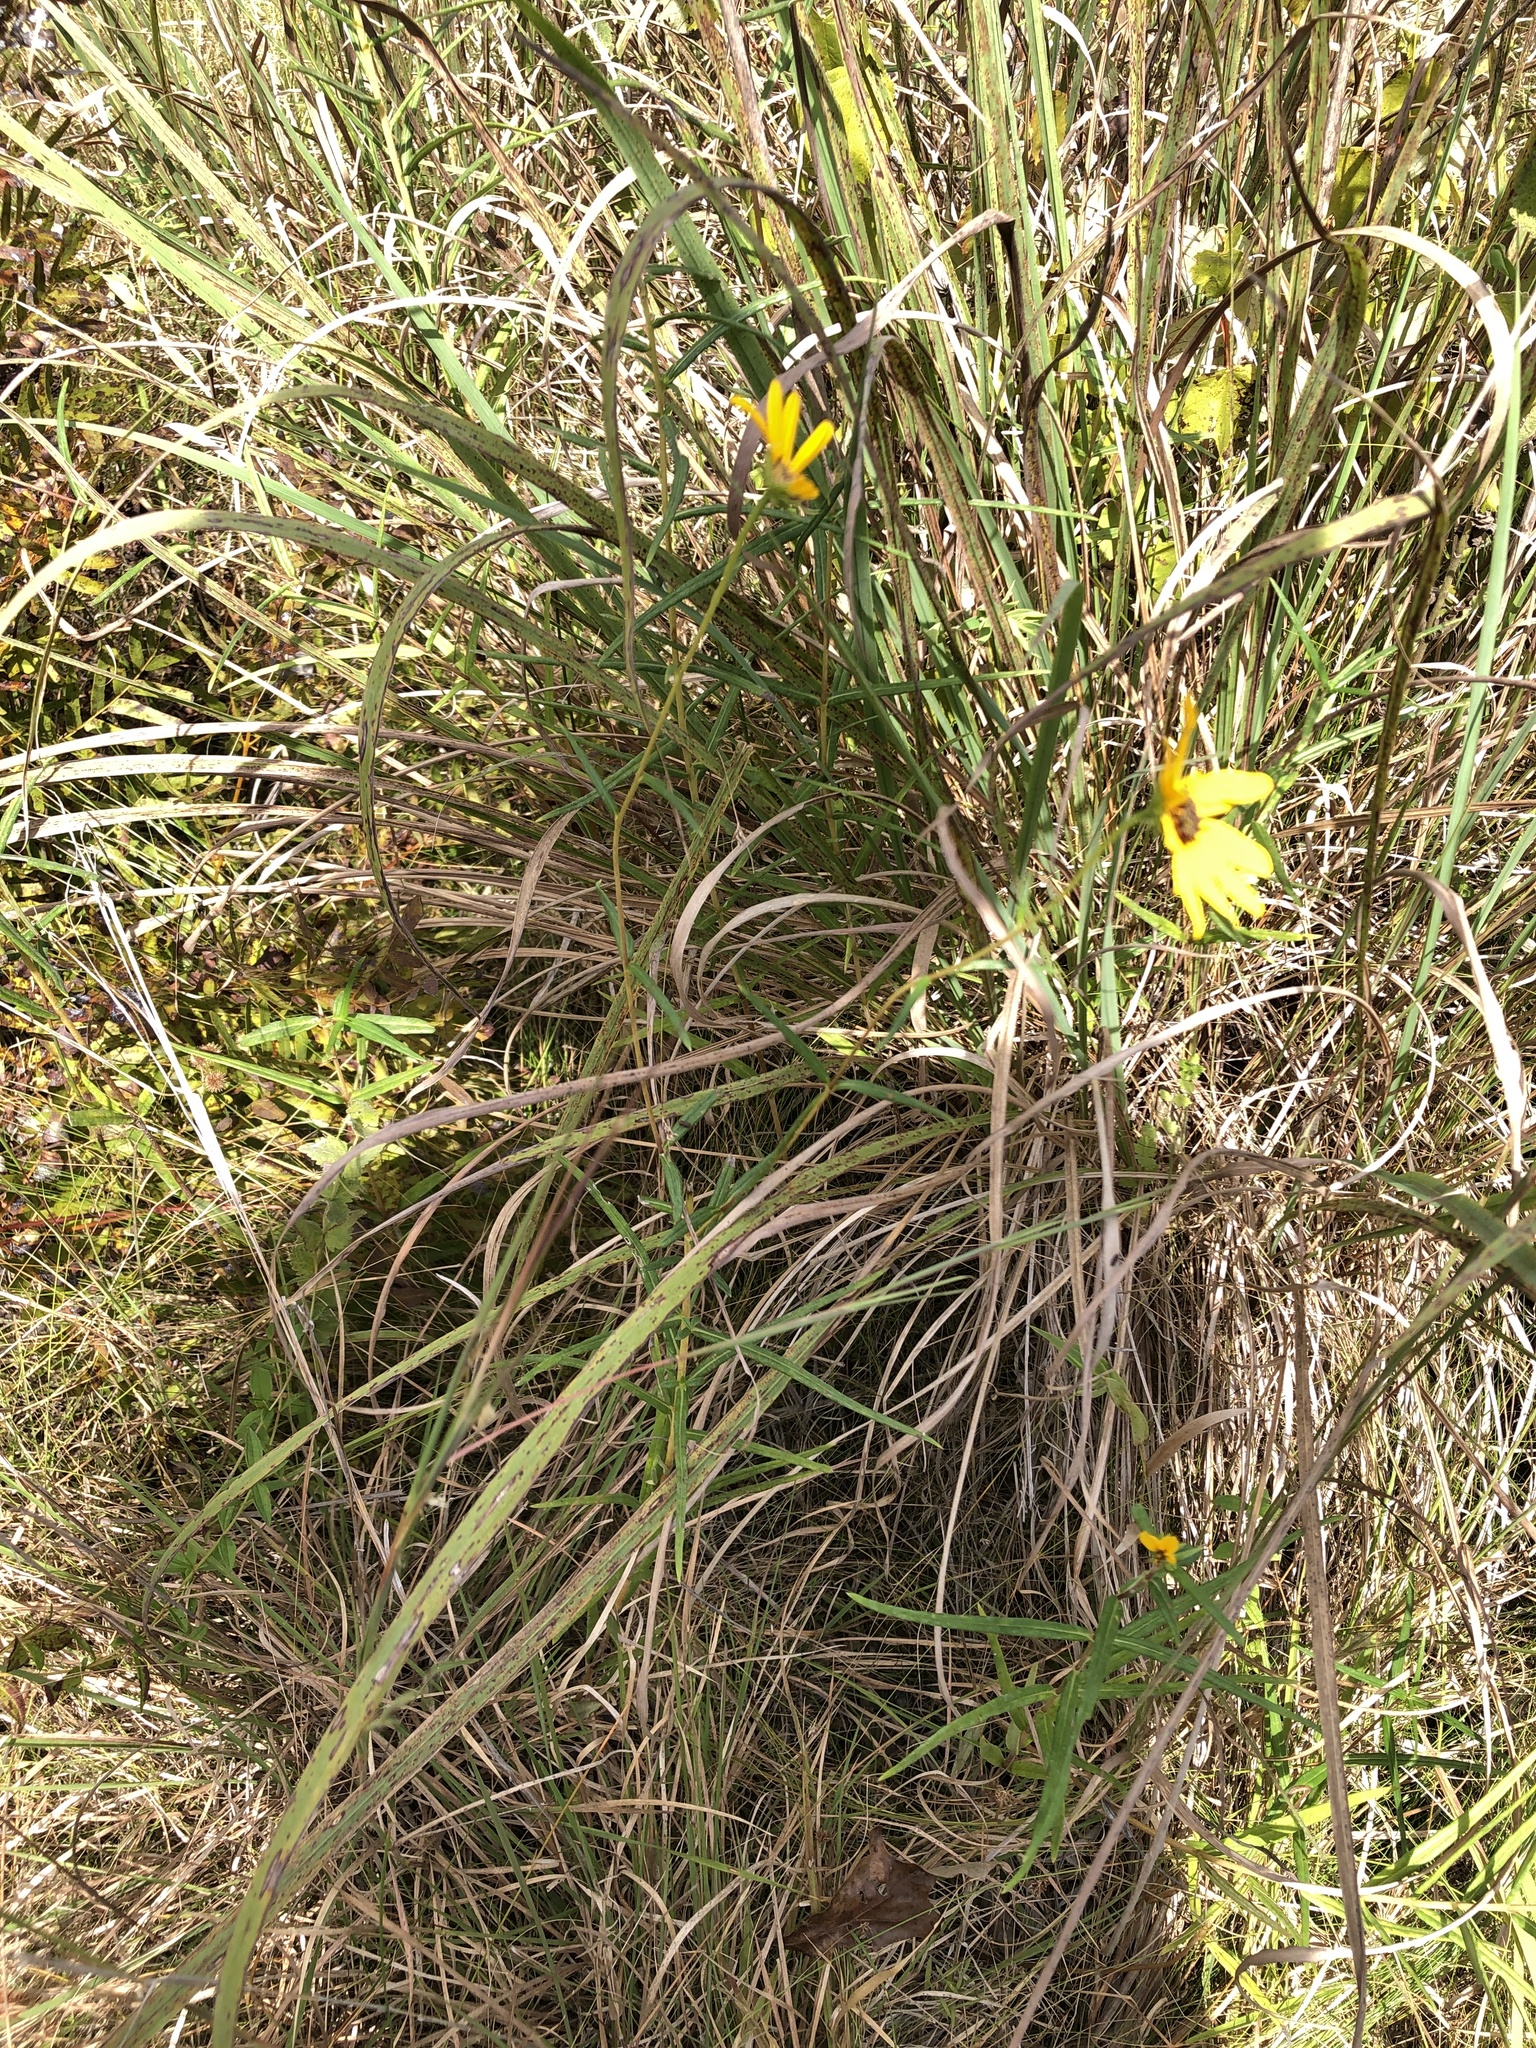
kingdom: Plantae
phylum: Tracheophyta
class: Magnoliopsida
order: Asterales
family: Asteraceae
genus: Helianthus
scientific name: Helianthus angustifolius
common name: Swamp sunflower
